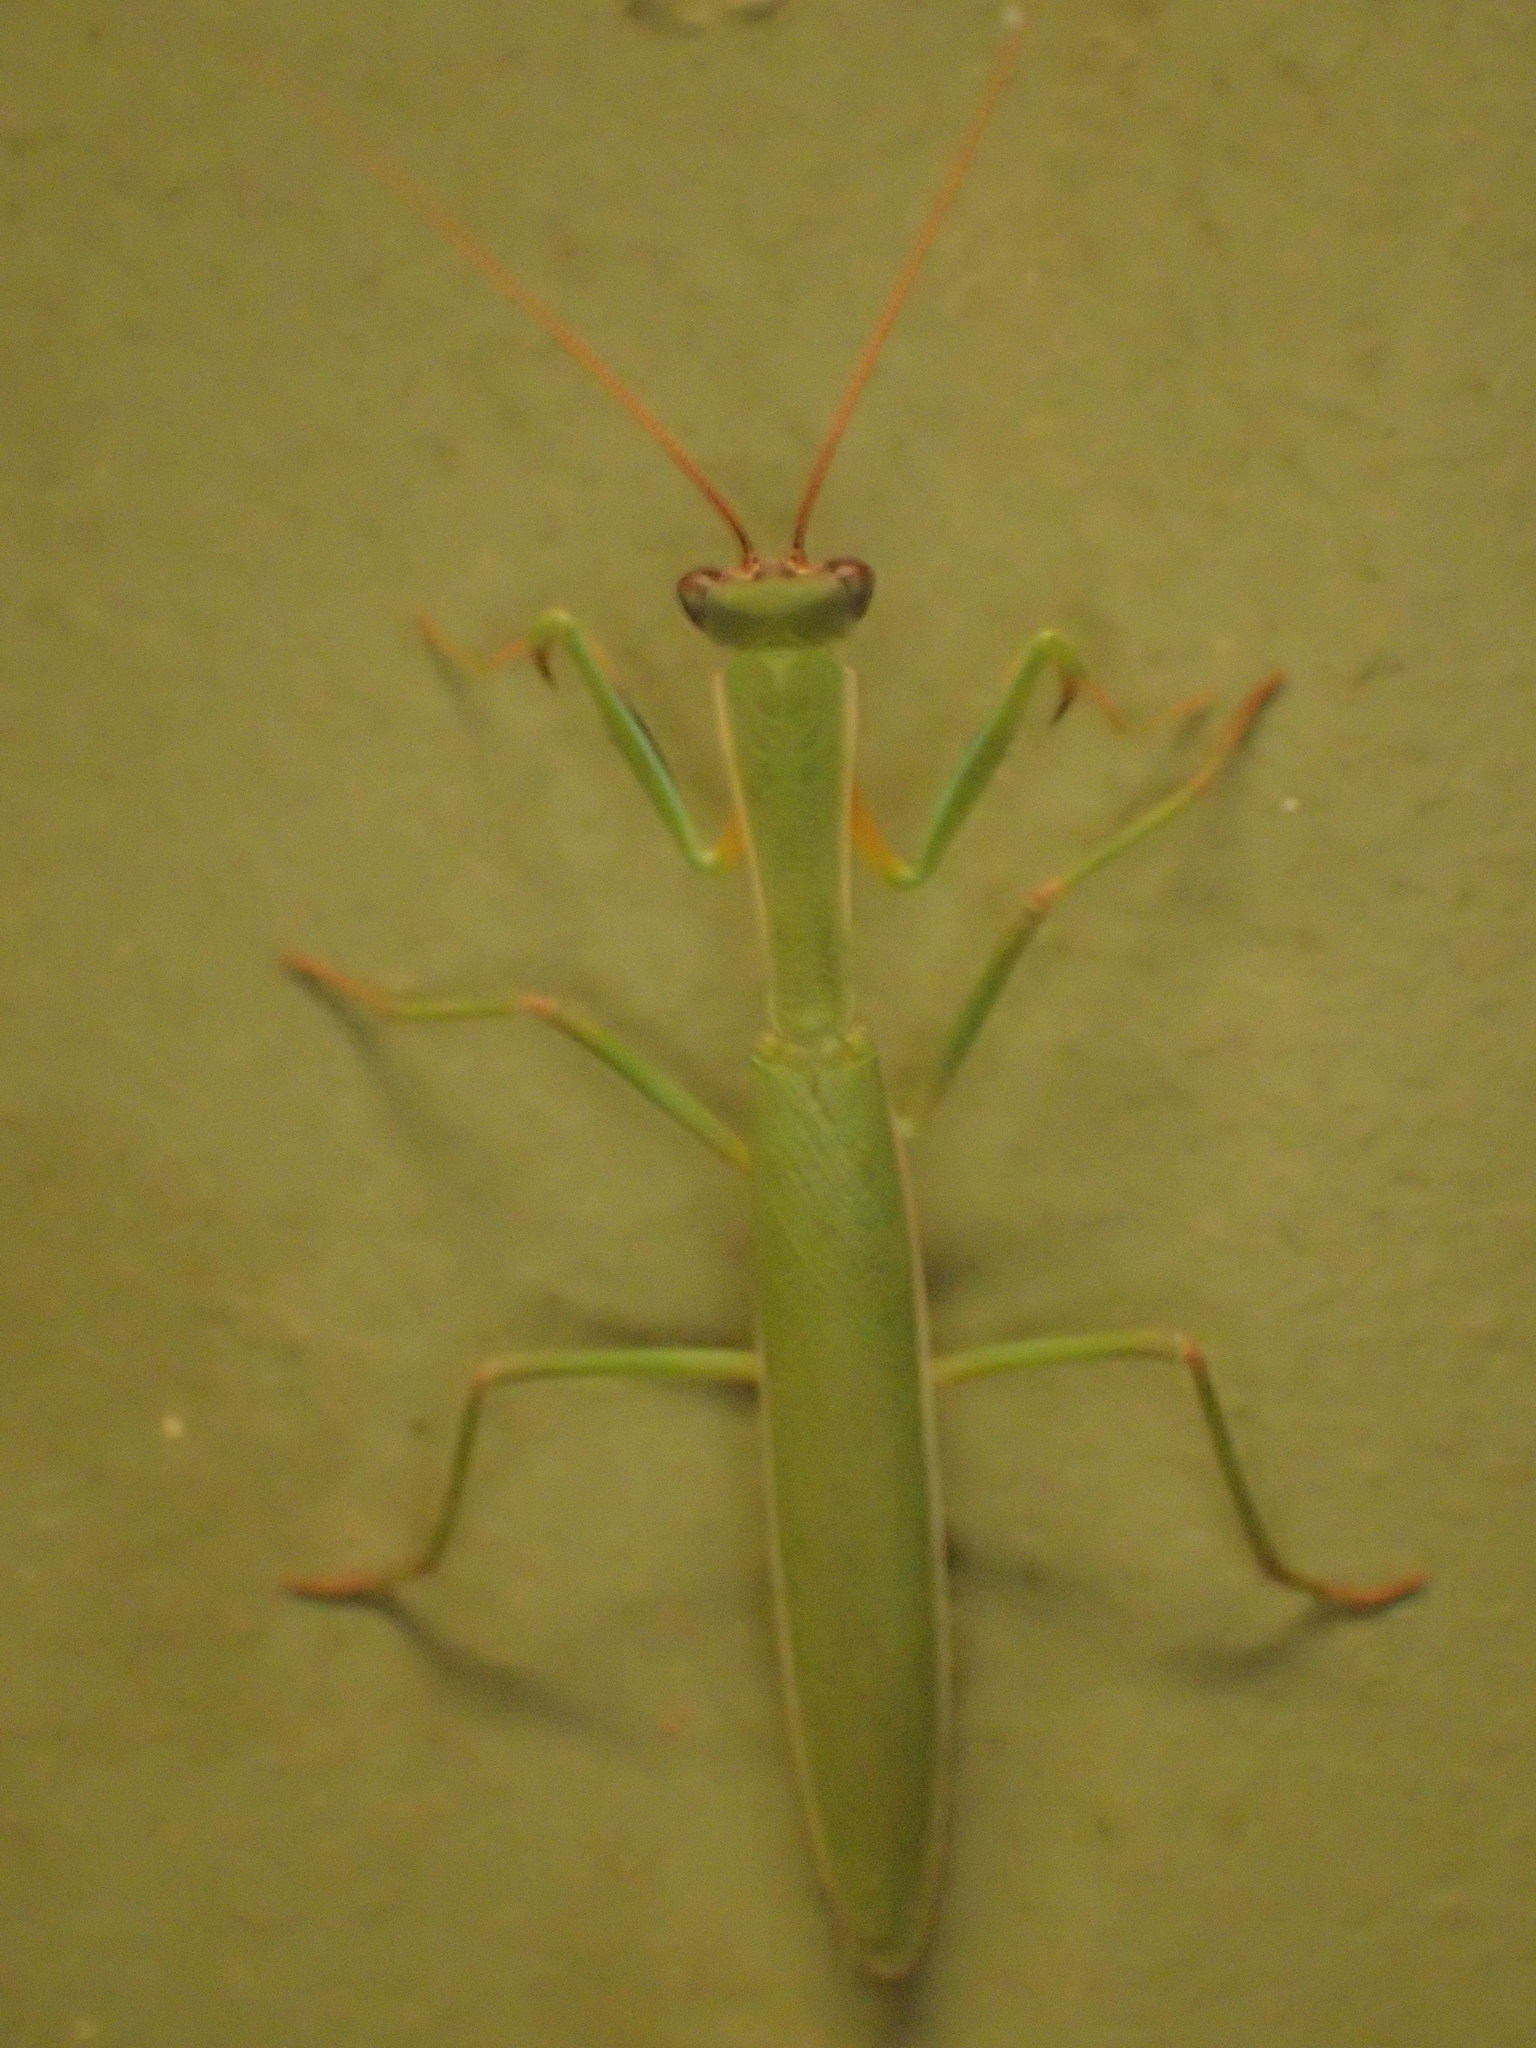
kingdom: Animalia
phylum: Arthropoda
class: Insecta
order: Mantodea
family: Mantidae
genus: Orthodera
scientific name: Orthodera gunni
